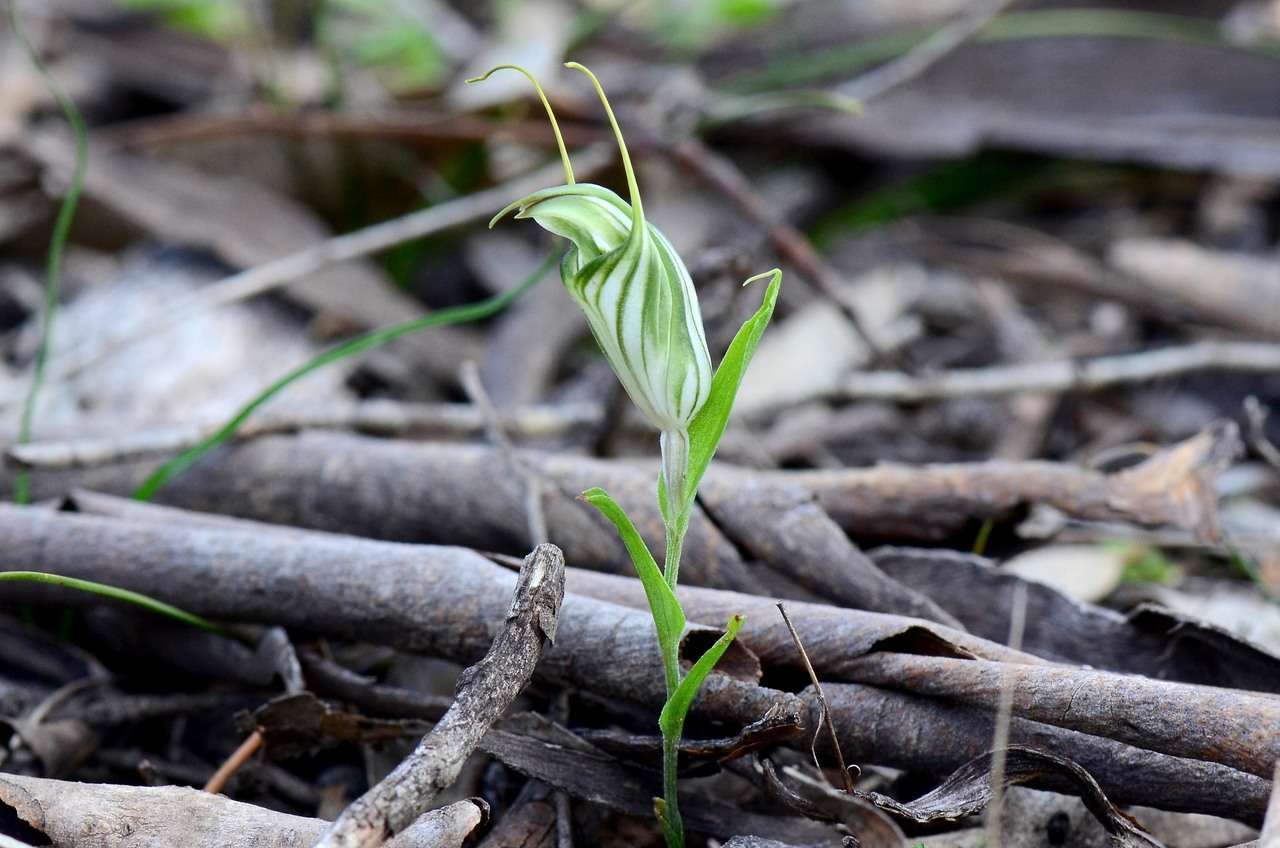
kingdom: Plantae
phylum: Tracheophyta
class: Liliopsida
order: Asparagales
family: Orchidaceae
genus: Pterostylis
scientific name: Pterostylis robusta
